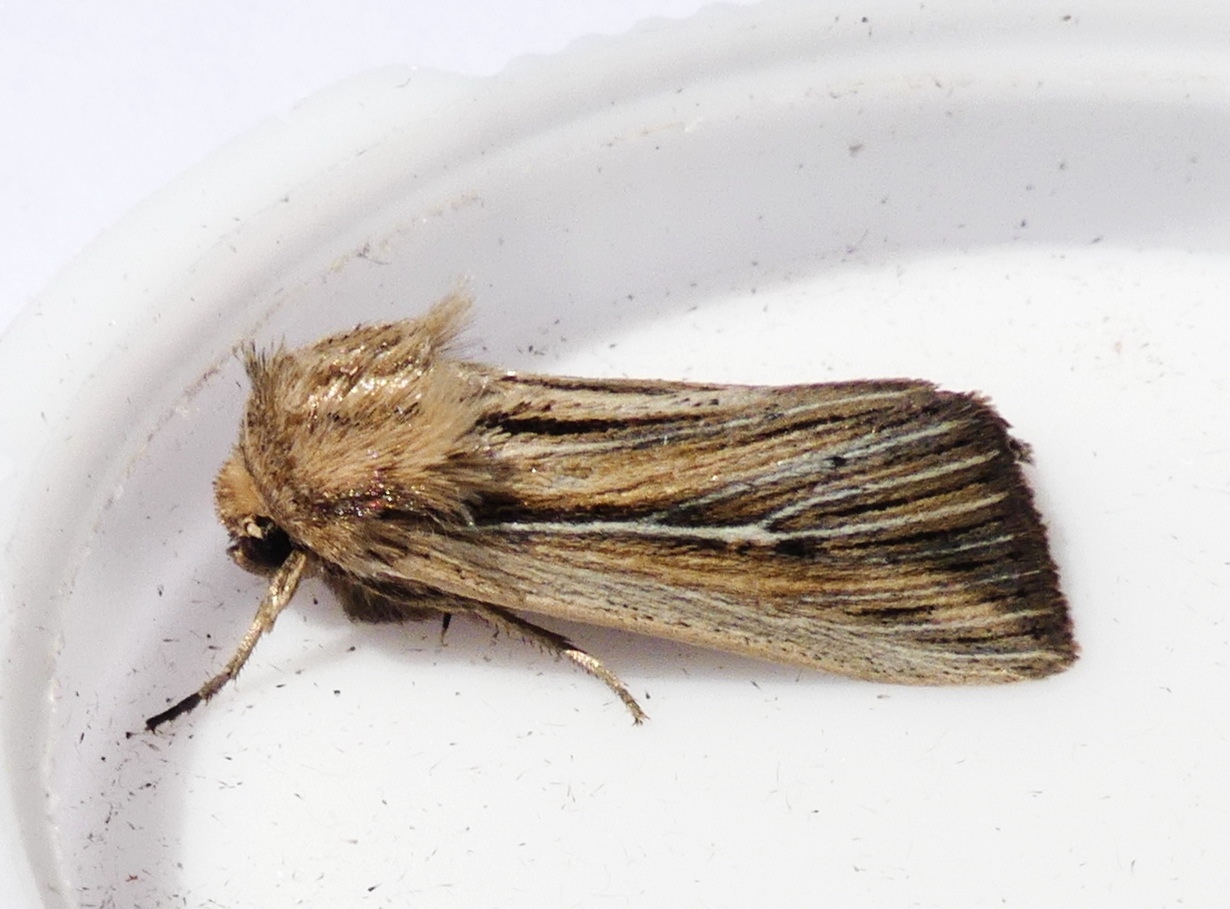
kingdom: Animalia
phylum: Arthropoda
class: Insecta
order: Lepidoptera
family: Noctuidae
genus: Leucania
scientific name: Leucania commoides
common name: Two-lined wainscot
